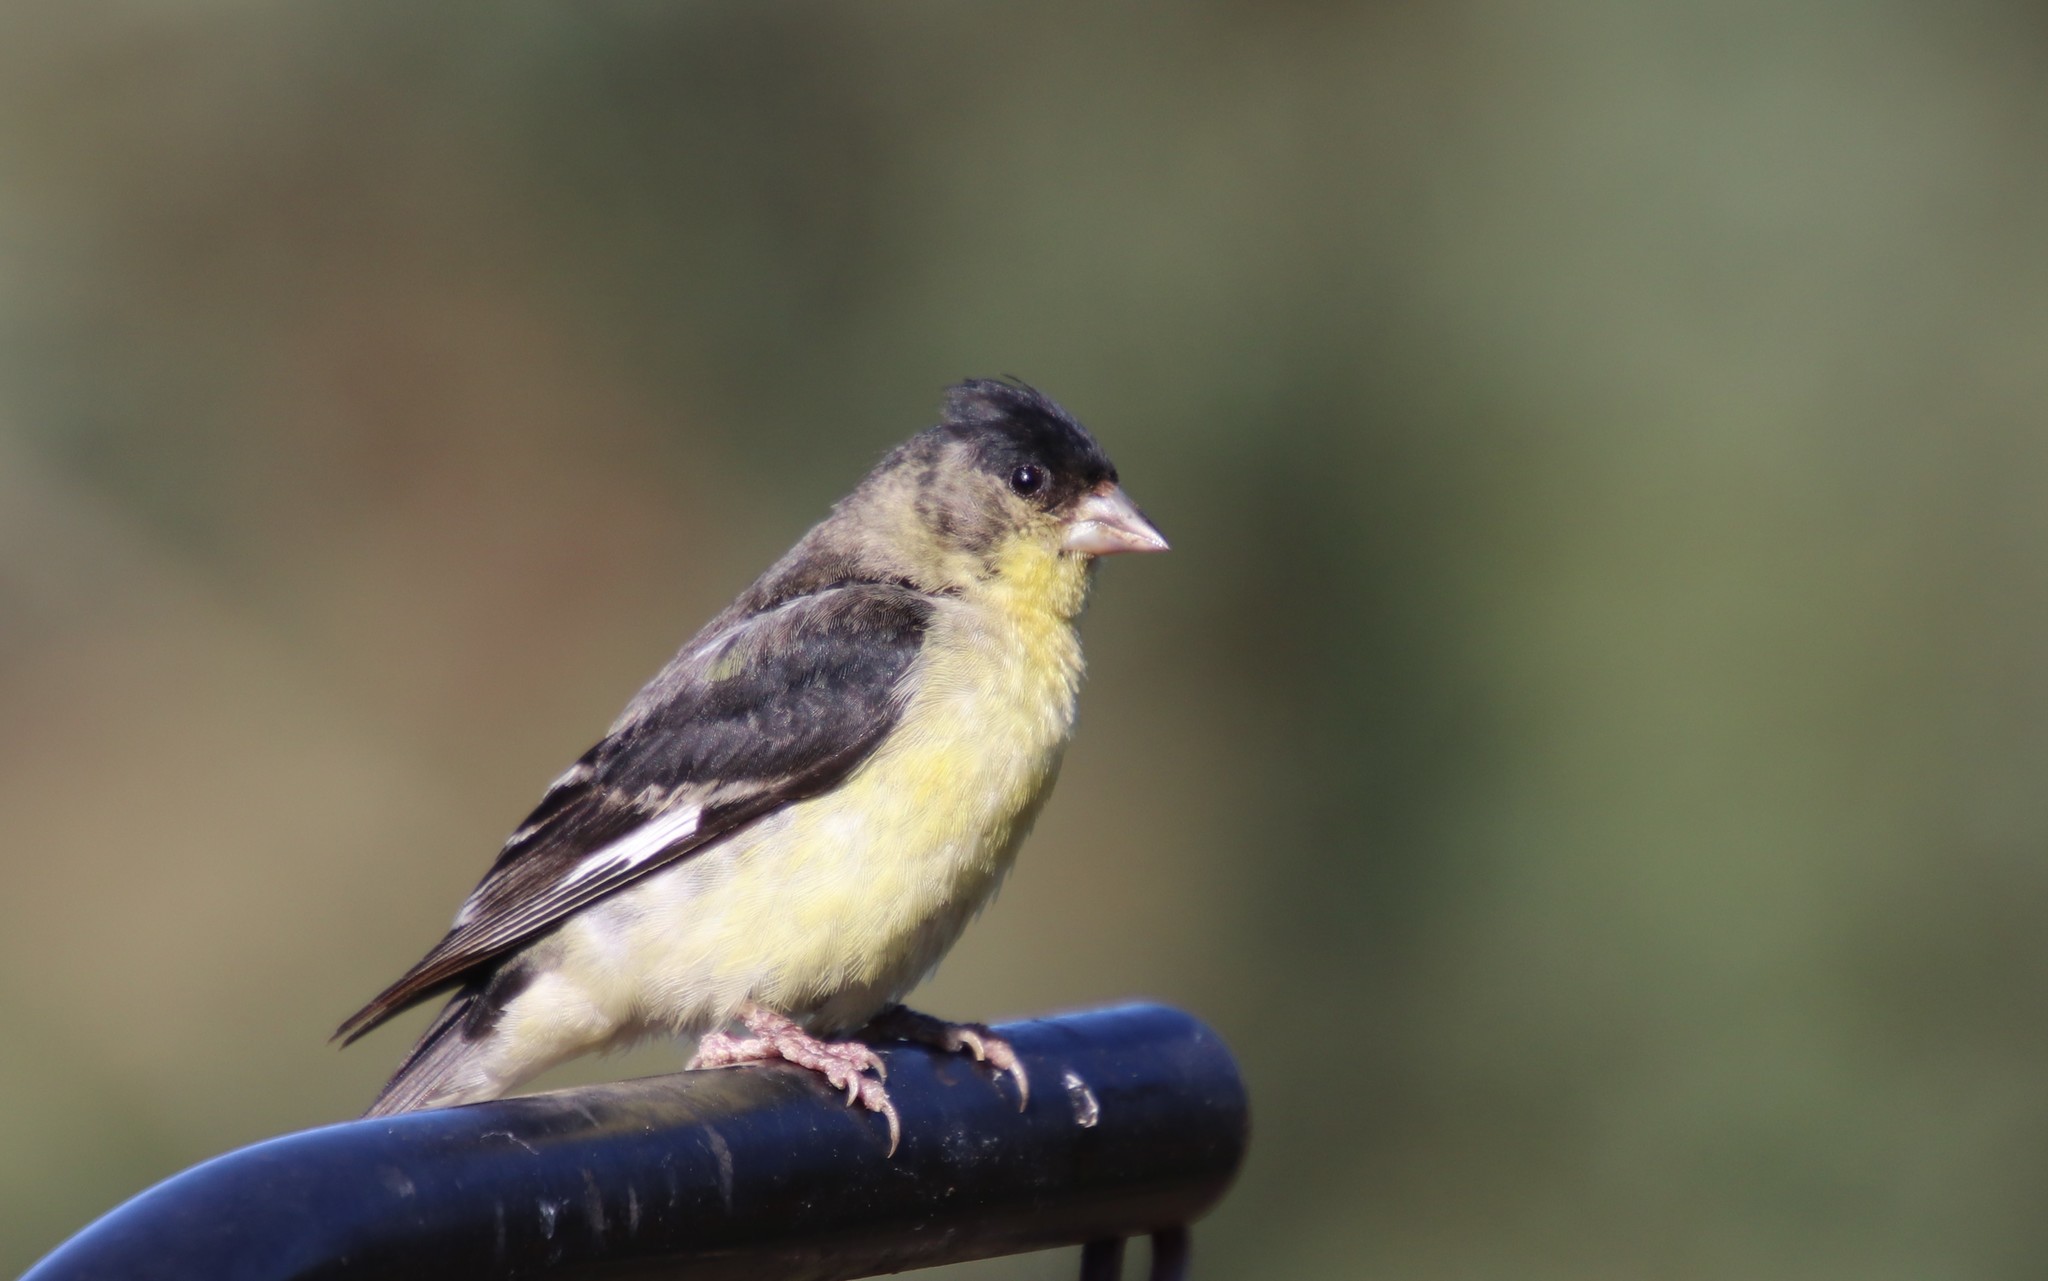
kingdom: Animalia
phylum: Chordata
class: Aves
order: Passeriformes
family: Fringillidae
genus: Spinus
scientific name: Spinus psaltria
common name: Lesser goldfinch
